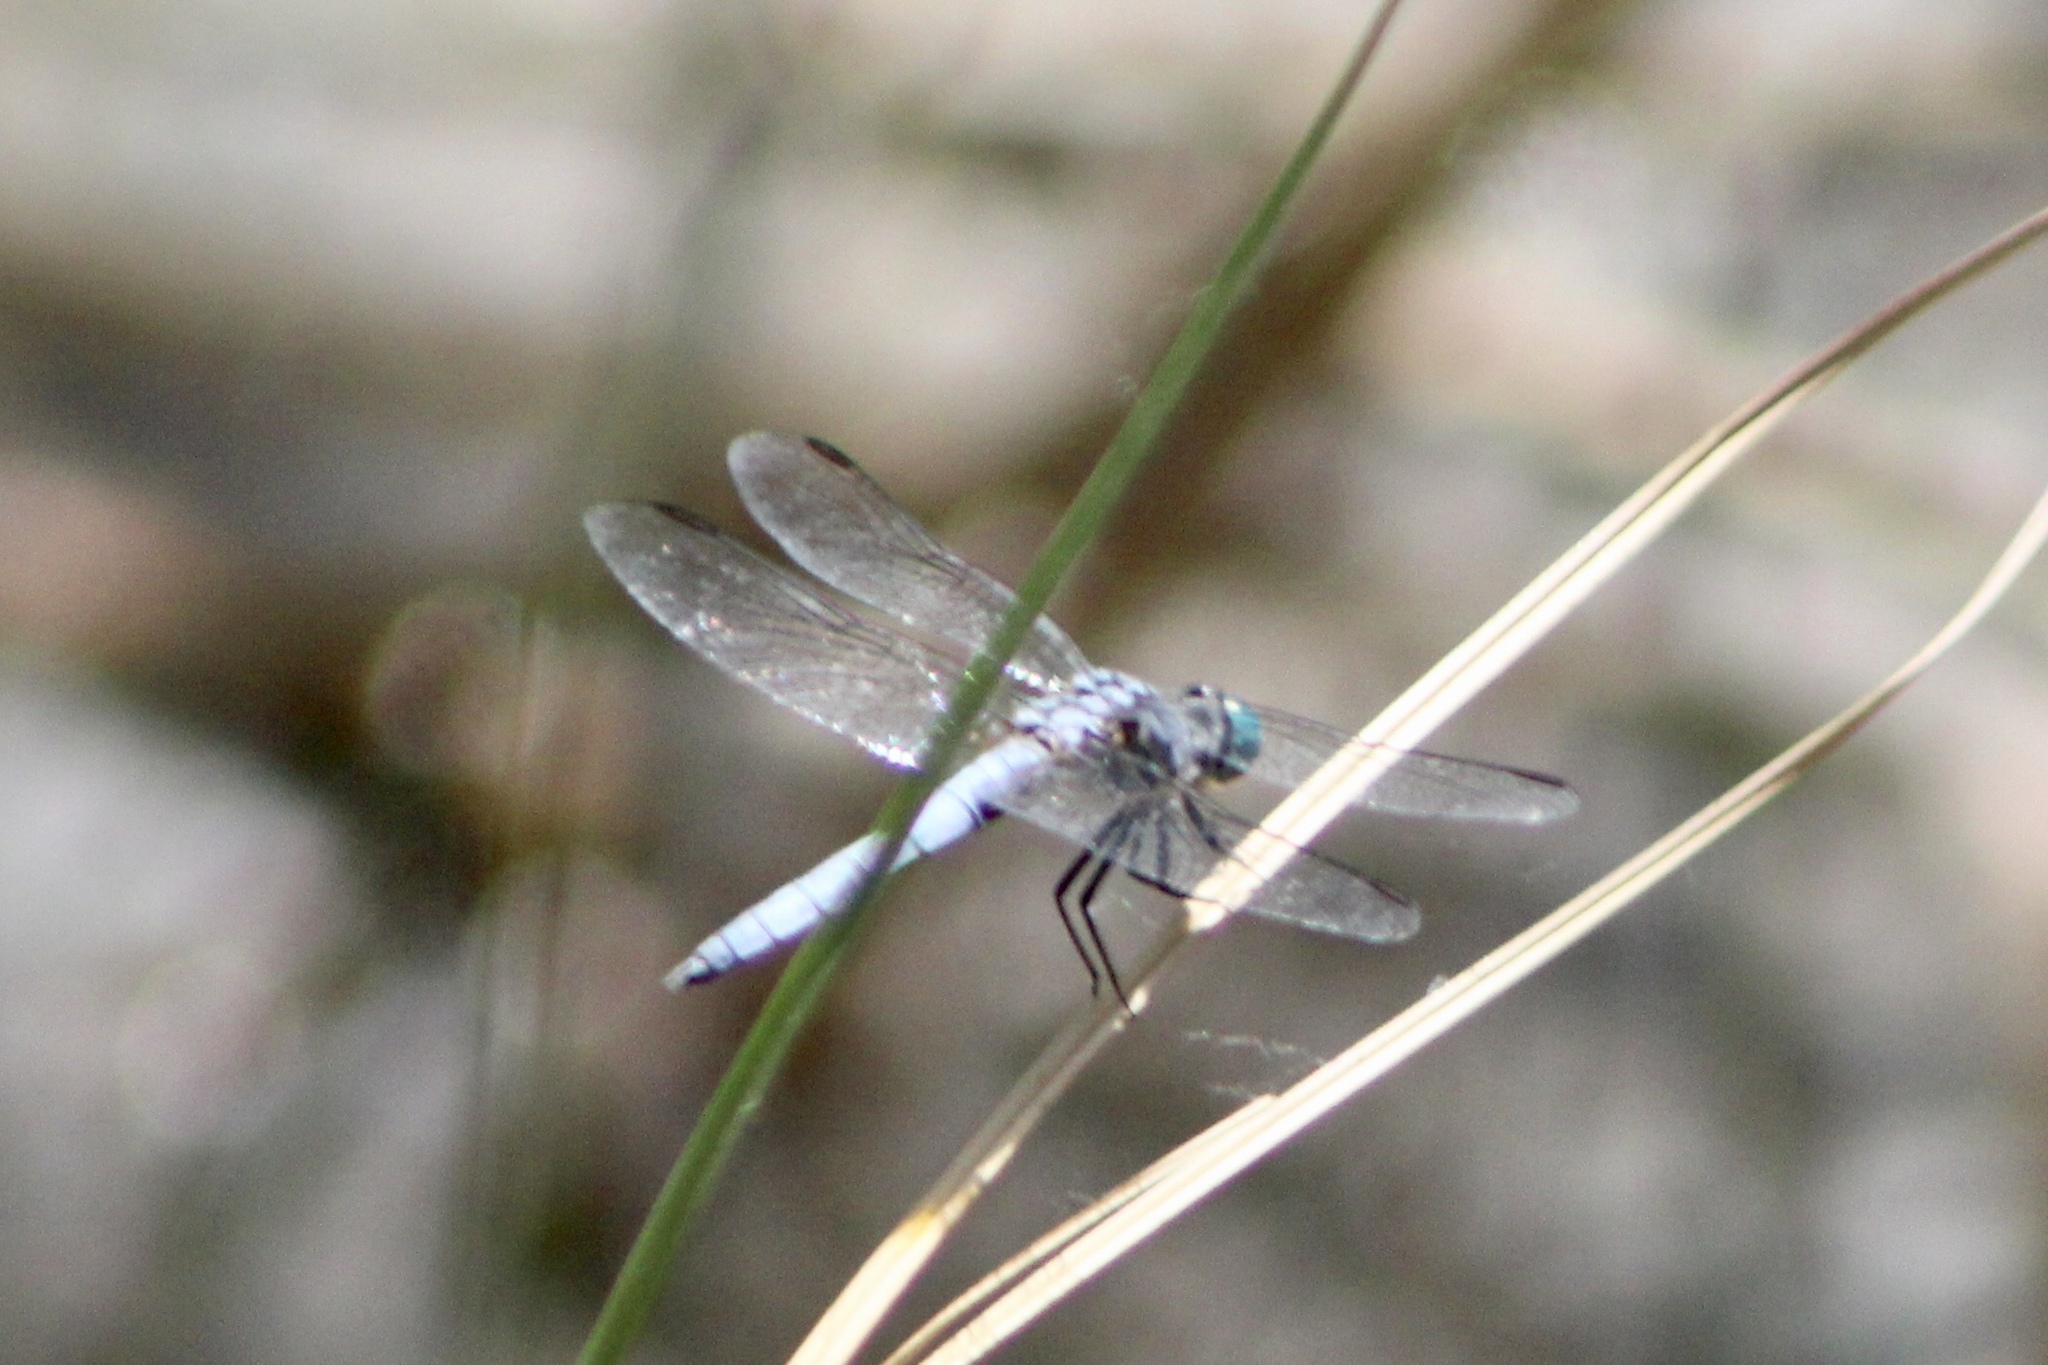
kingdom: Animalia
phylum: Arthropoda
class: Insecta
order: Odonata
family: Libellulidae
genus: Pachydiplax
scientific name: Pachydiplax longipennis
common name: Blue dasher
